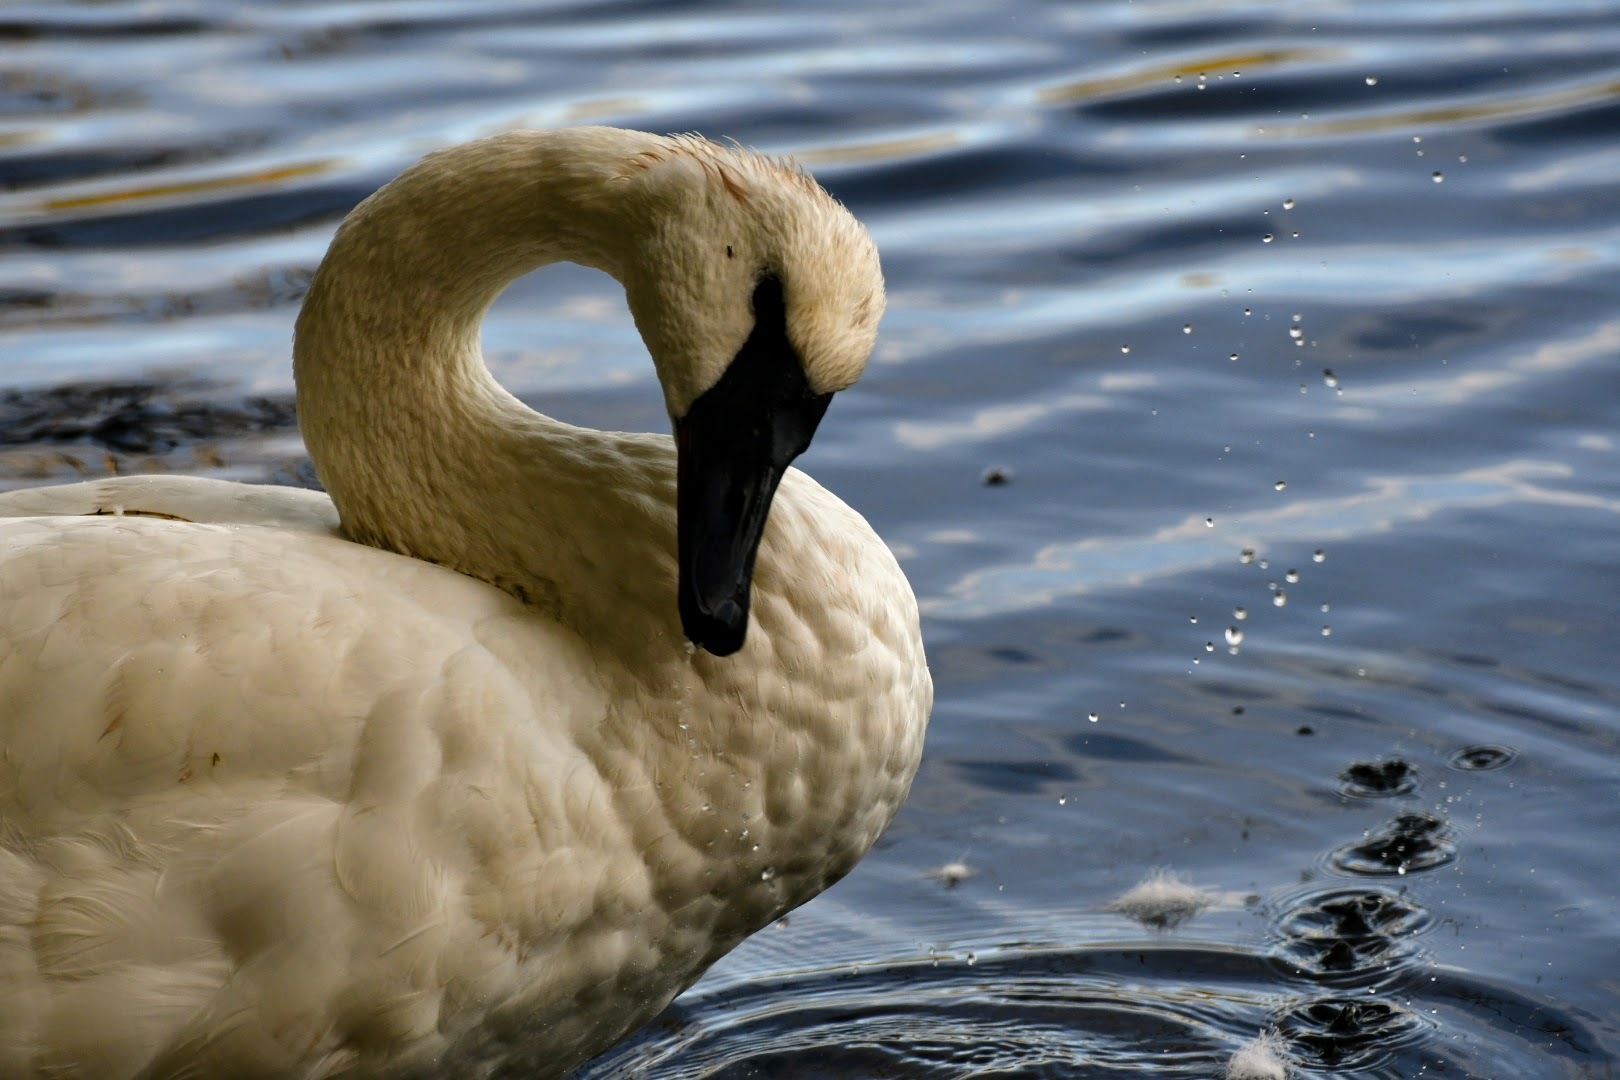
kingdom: Animalia
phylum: Chordata
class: Aves
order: Anseriformes
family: Anatidae
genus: Cygnus
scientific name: Cygnus buccinator
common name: Trumpeter swan
